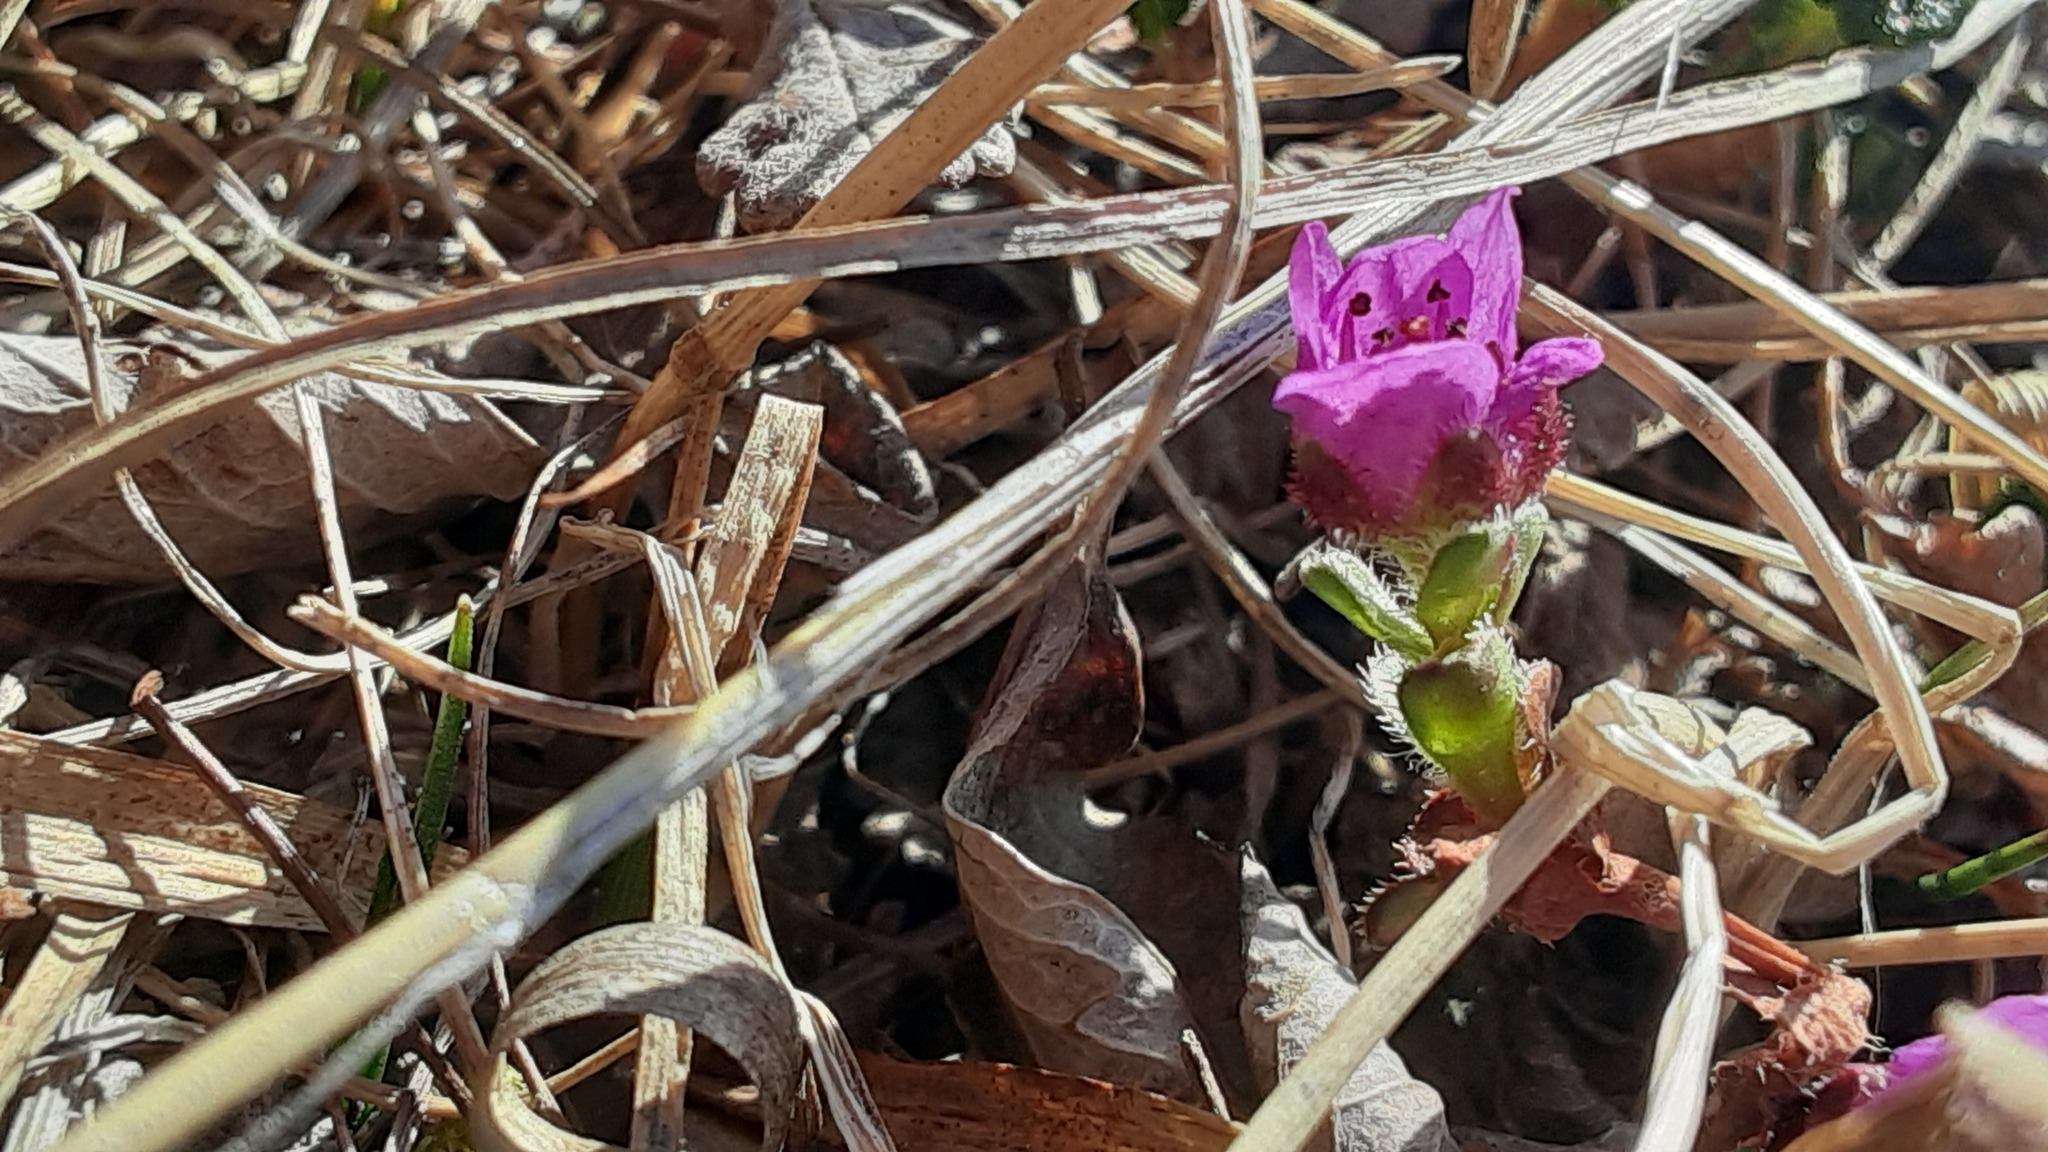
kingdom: Plantae
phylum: Tracheophyta
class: Magnoliopsida
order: Saxifragales
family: Saxifragaceae
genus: Saxifraga
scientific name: Saxifraga oppositifolia
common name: Purple saxifrage
